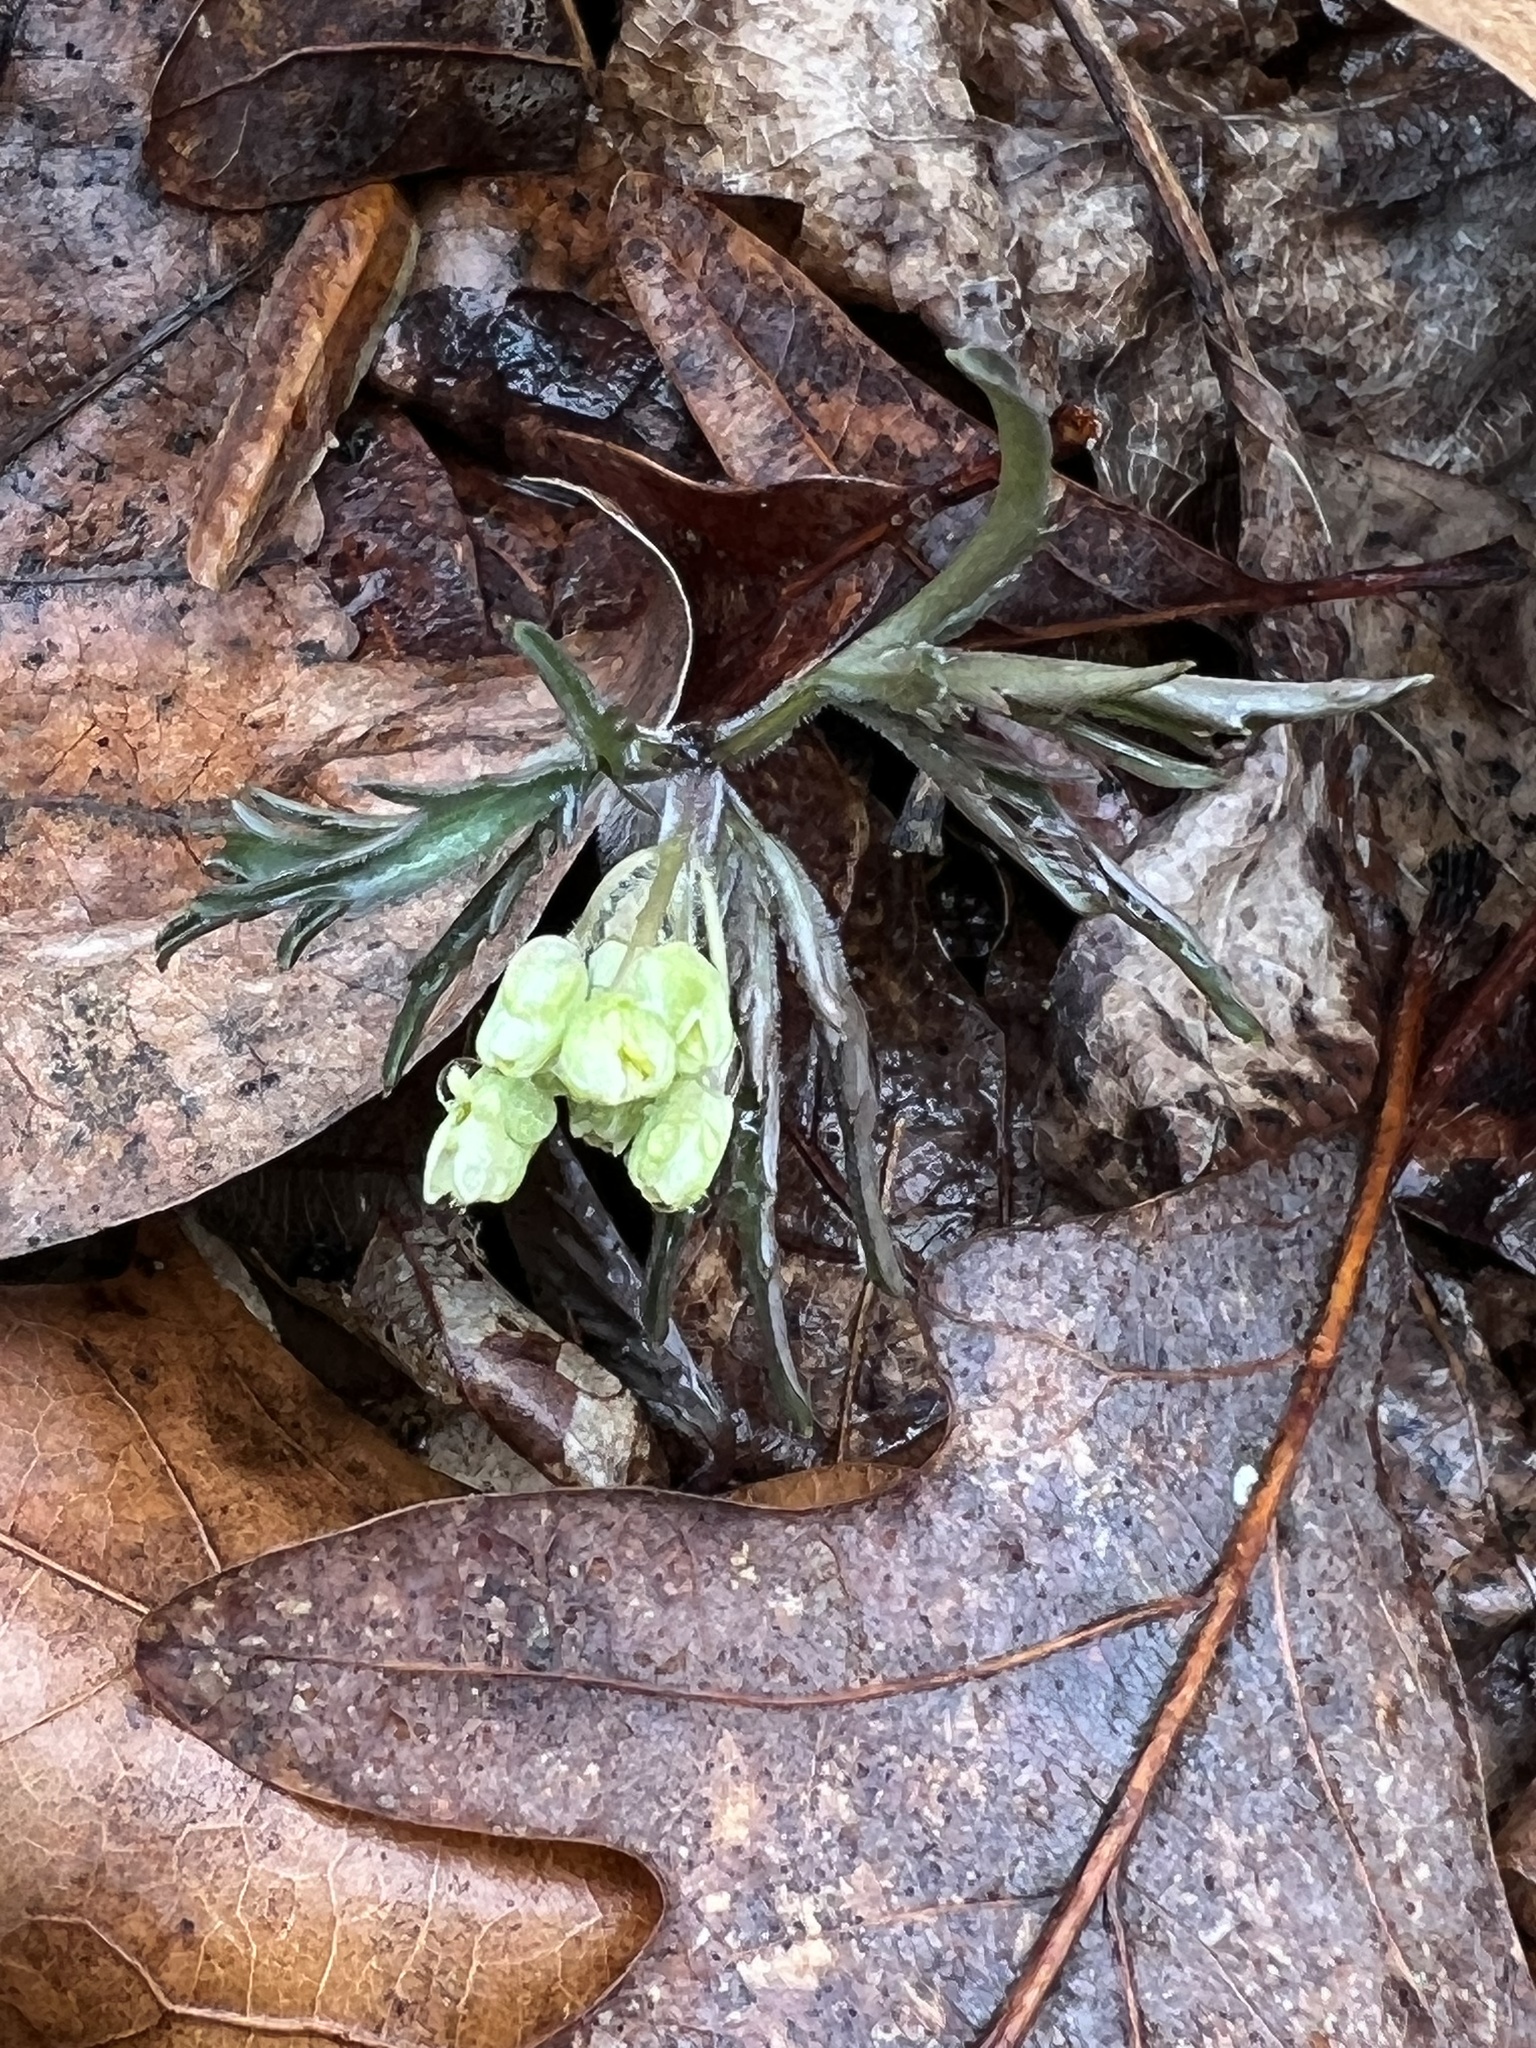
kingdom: Plantae
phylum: Tracheophyta
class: Magnoliopsida
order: Brassicales
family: Brassicaceae
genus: Cardamine
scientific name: Cardamine concatenata
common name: Cut-leaf toothcup
